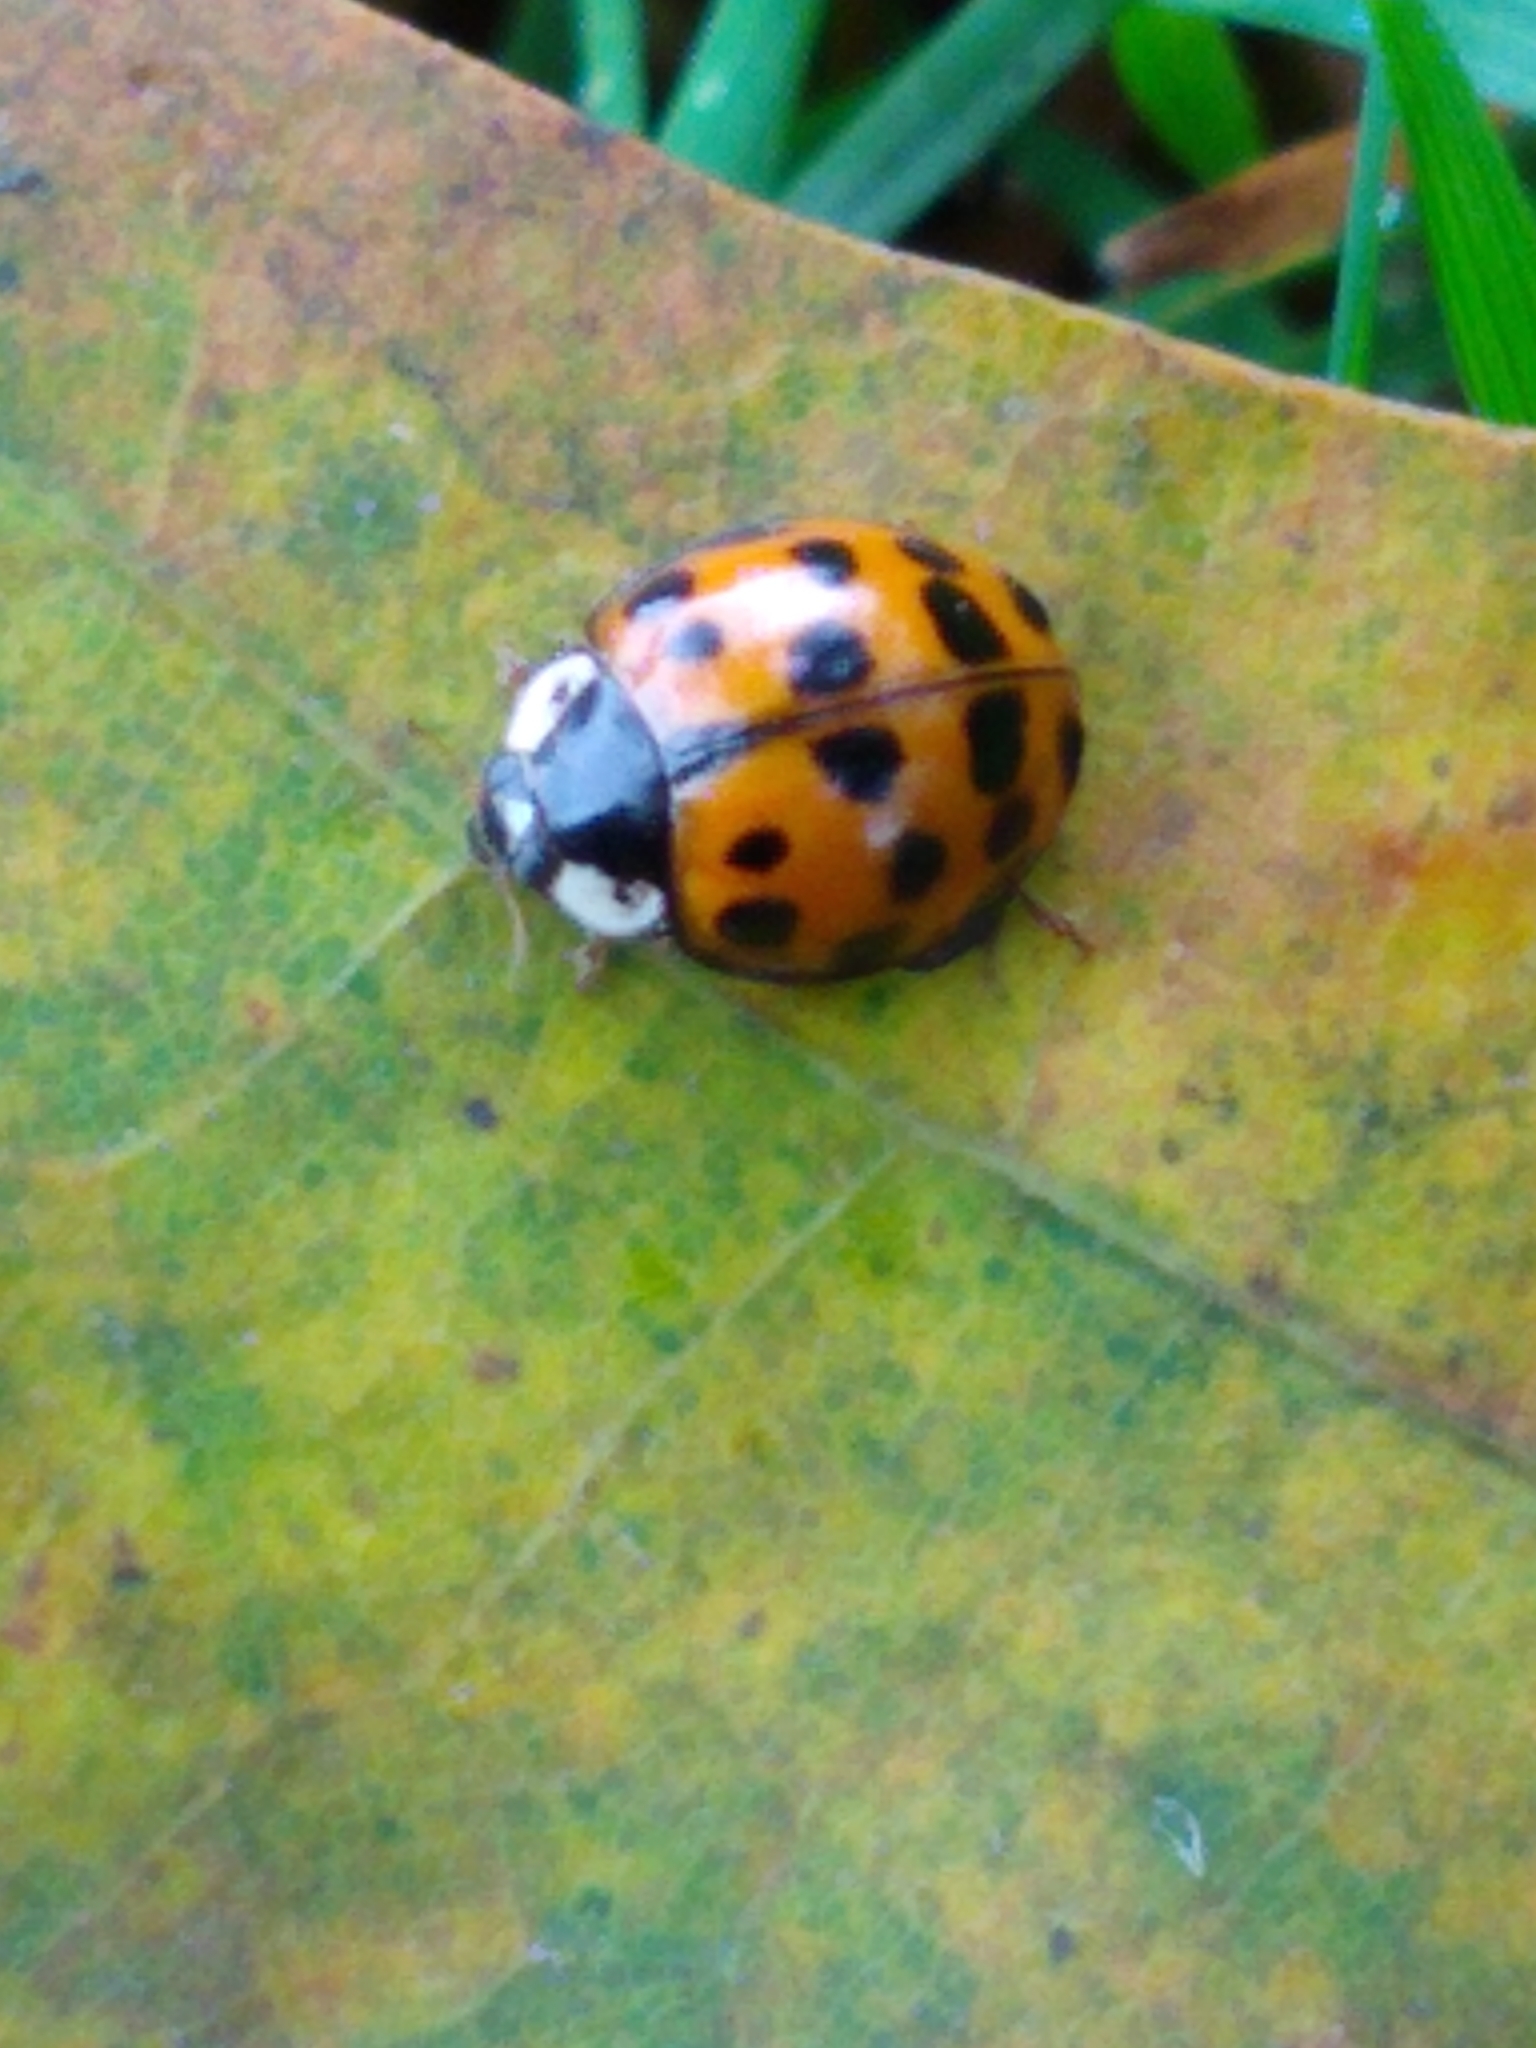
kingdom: Animalia
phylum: Arthropoda
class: Insecta
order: Coleoptera
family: Coccinellidae
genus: Harmonia
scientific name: Harmonia axyridis
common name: Harlequin ladybird
